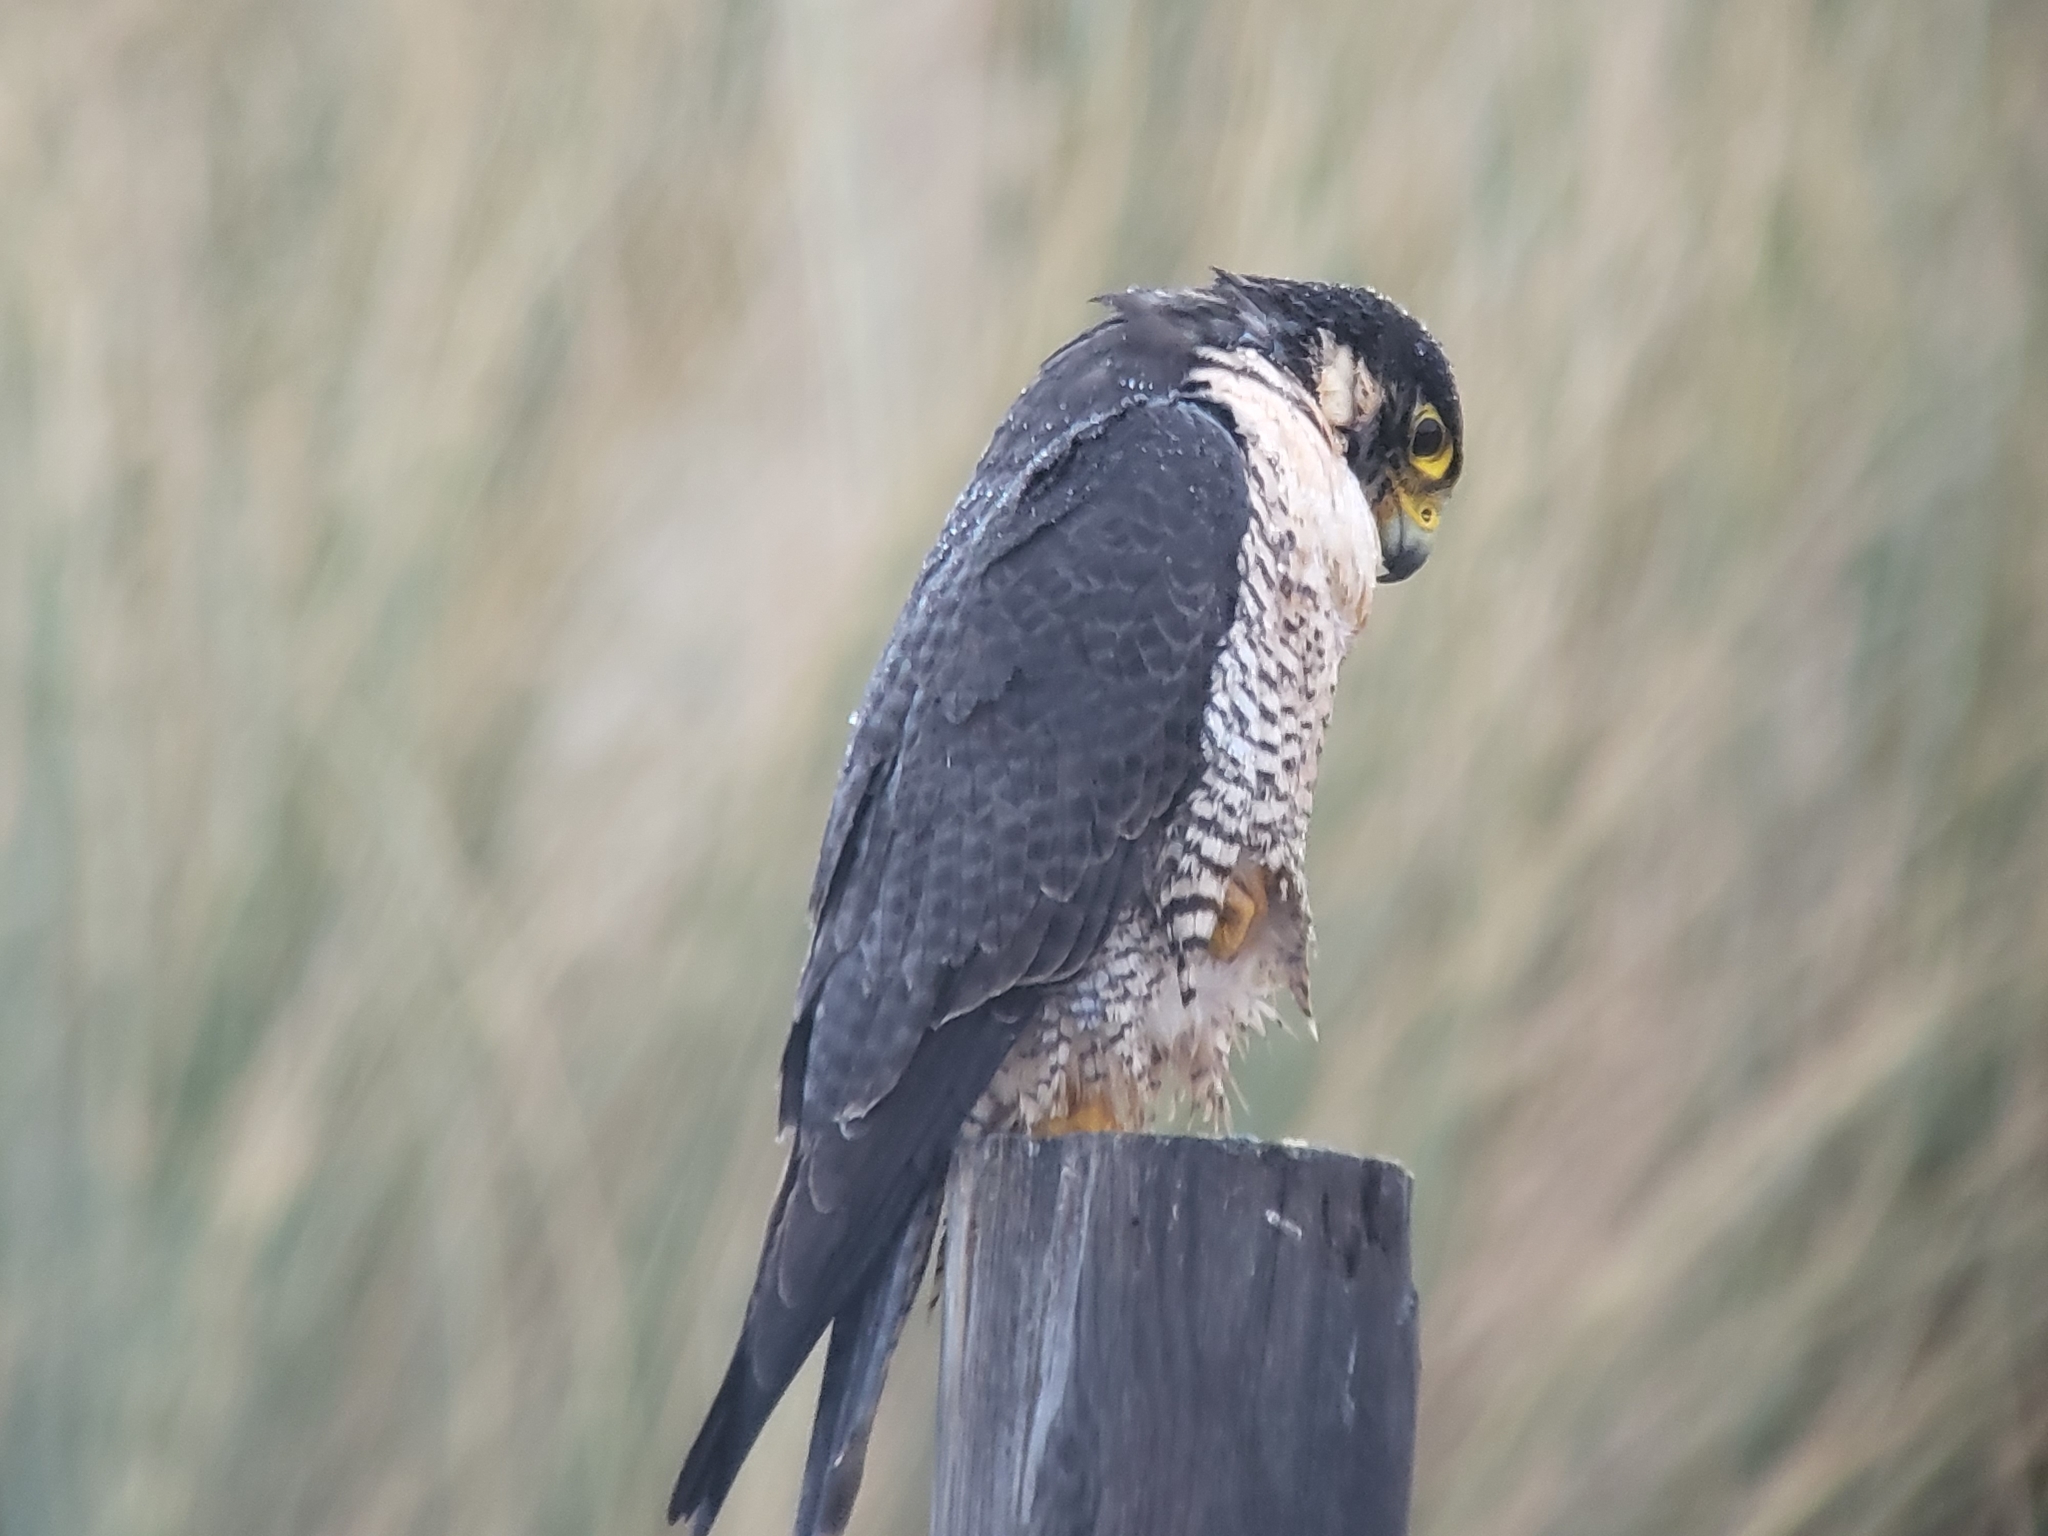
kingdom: Animalia
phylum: Chordata
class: Aves
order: Falconiformes
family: Falconidae
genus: Falco
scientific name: Falco peregrinus
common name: Peregrine falcon
